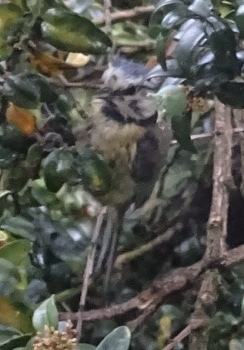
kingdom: Animalia
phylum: Chordata
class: Aves
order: Passeriformes
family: Paridae
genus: Cyanistes
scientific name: Cyanistes caeruleus
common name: Eurasian blue tit
